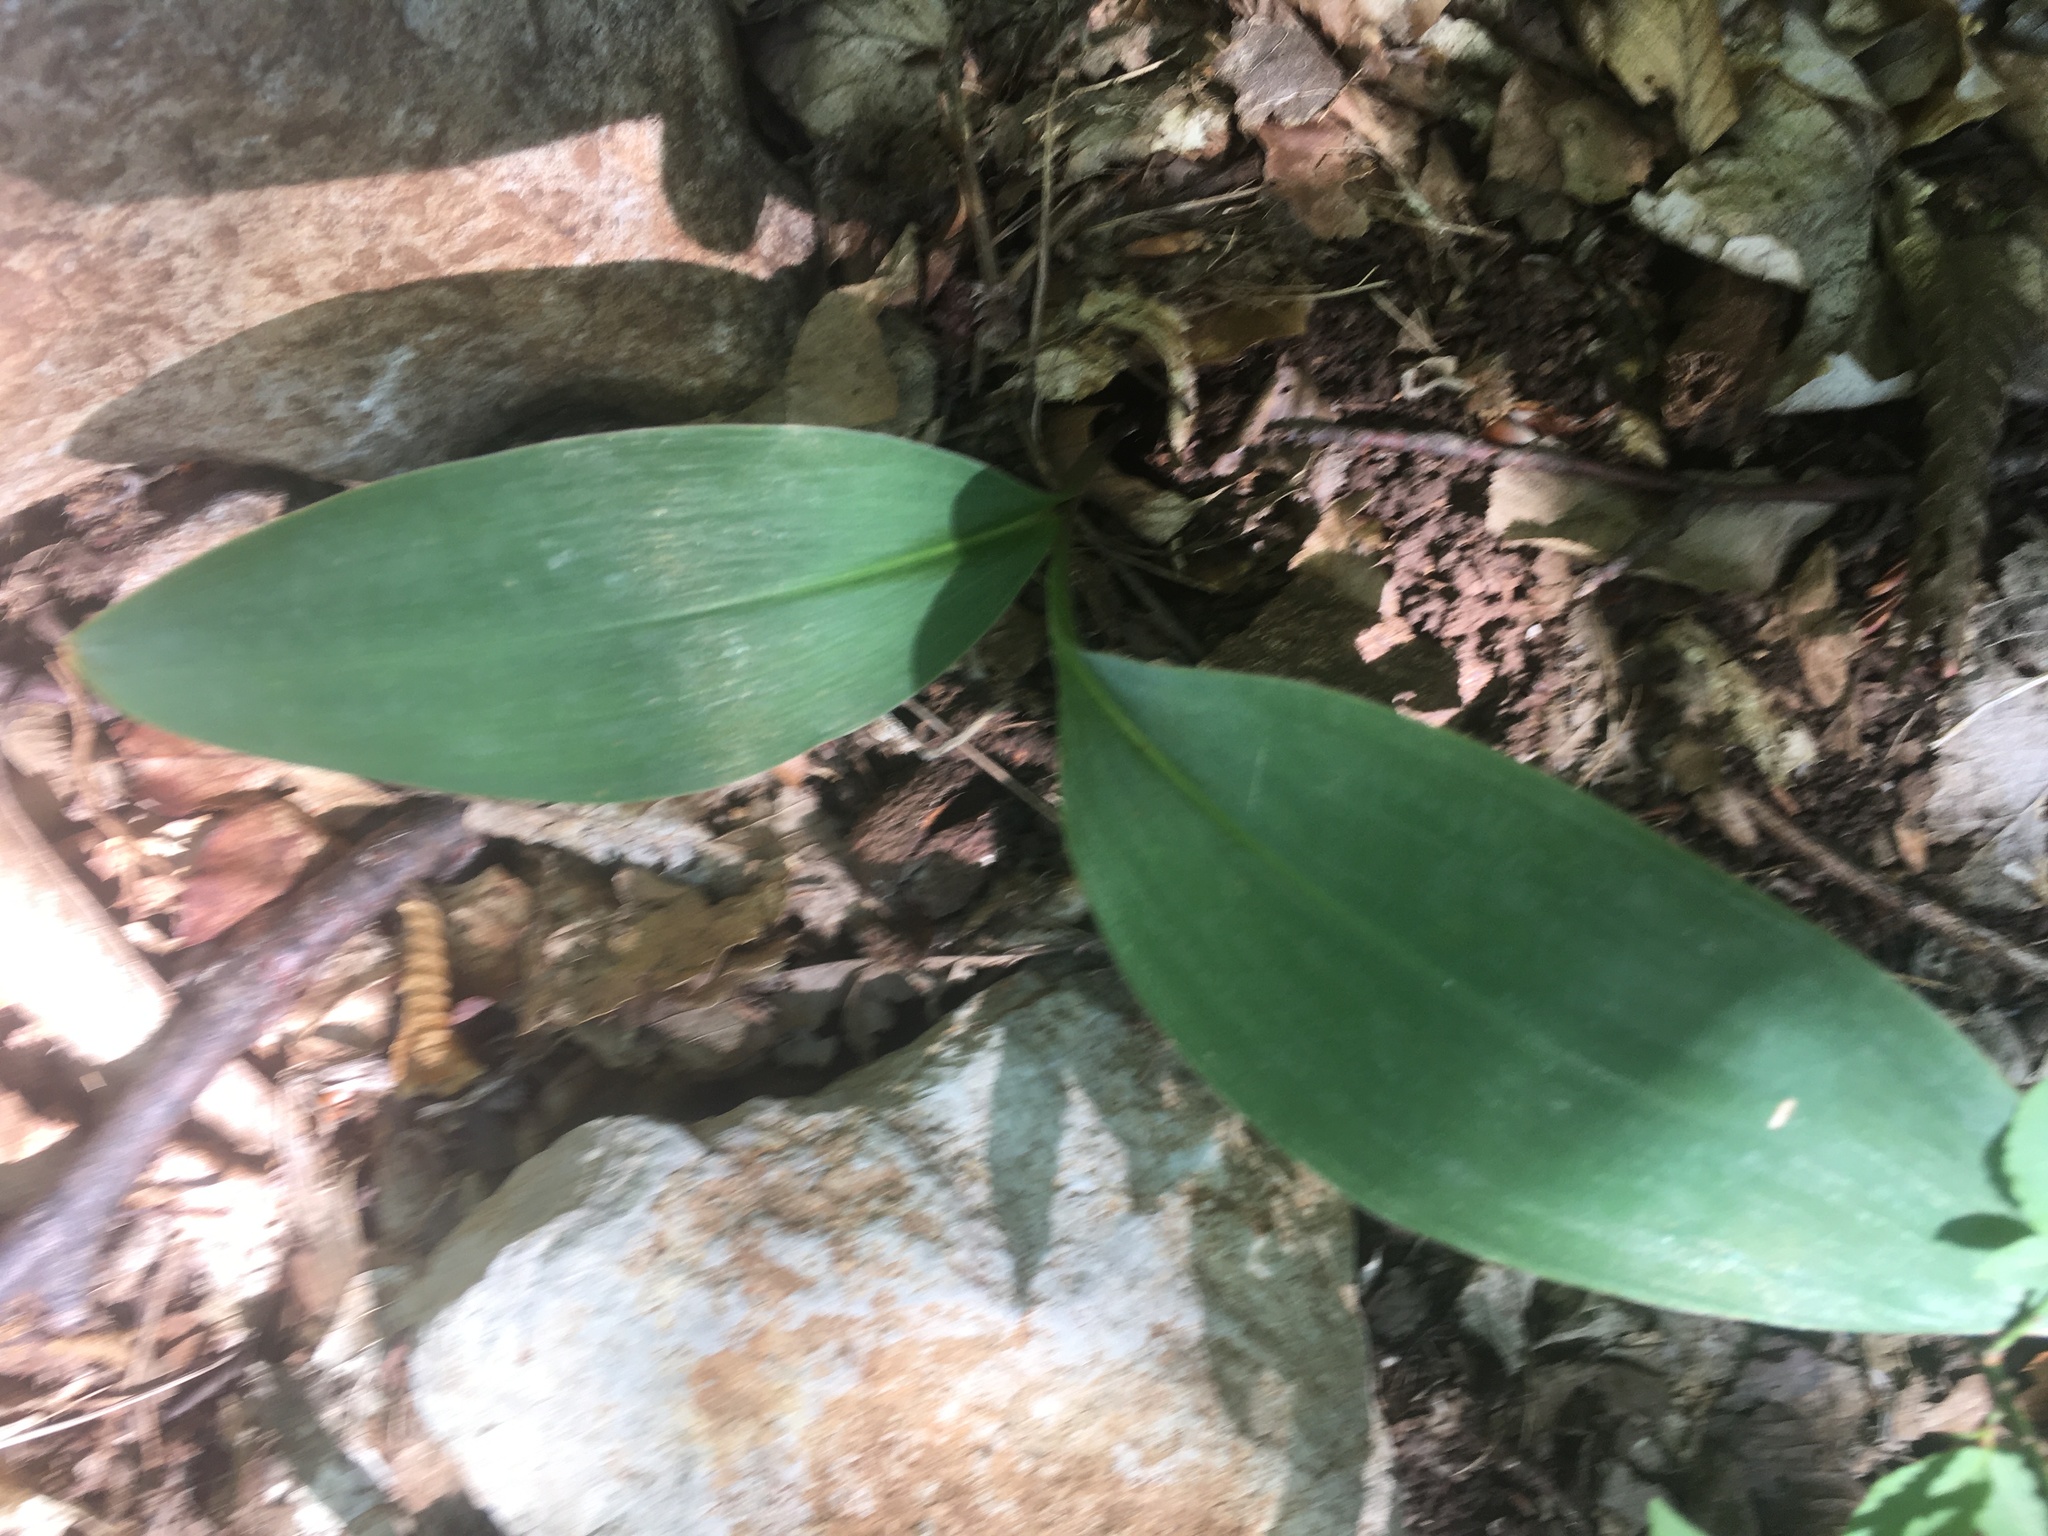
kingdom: Plantae
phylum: Tracheophyta
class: Liliopsida
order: Asparagales
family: Asparagaceae
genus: Convallaria
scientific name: Convallaria majalis
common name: Lily-of-the-valley
